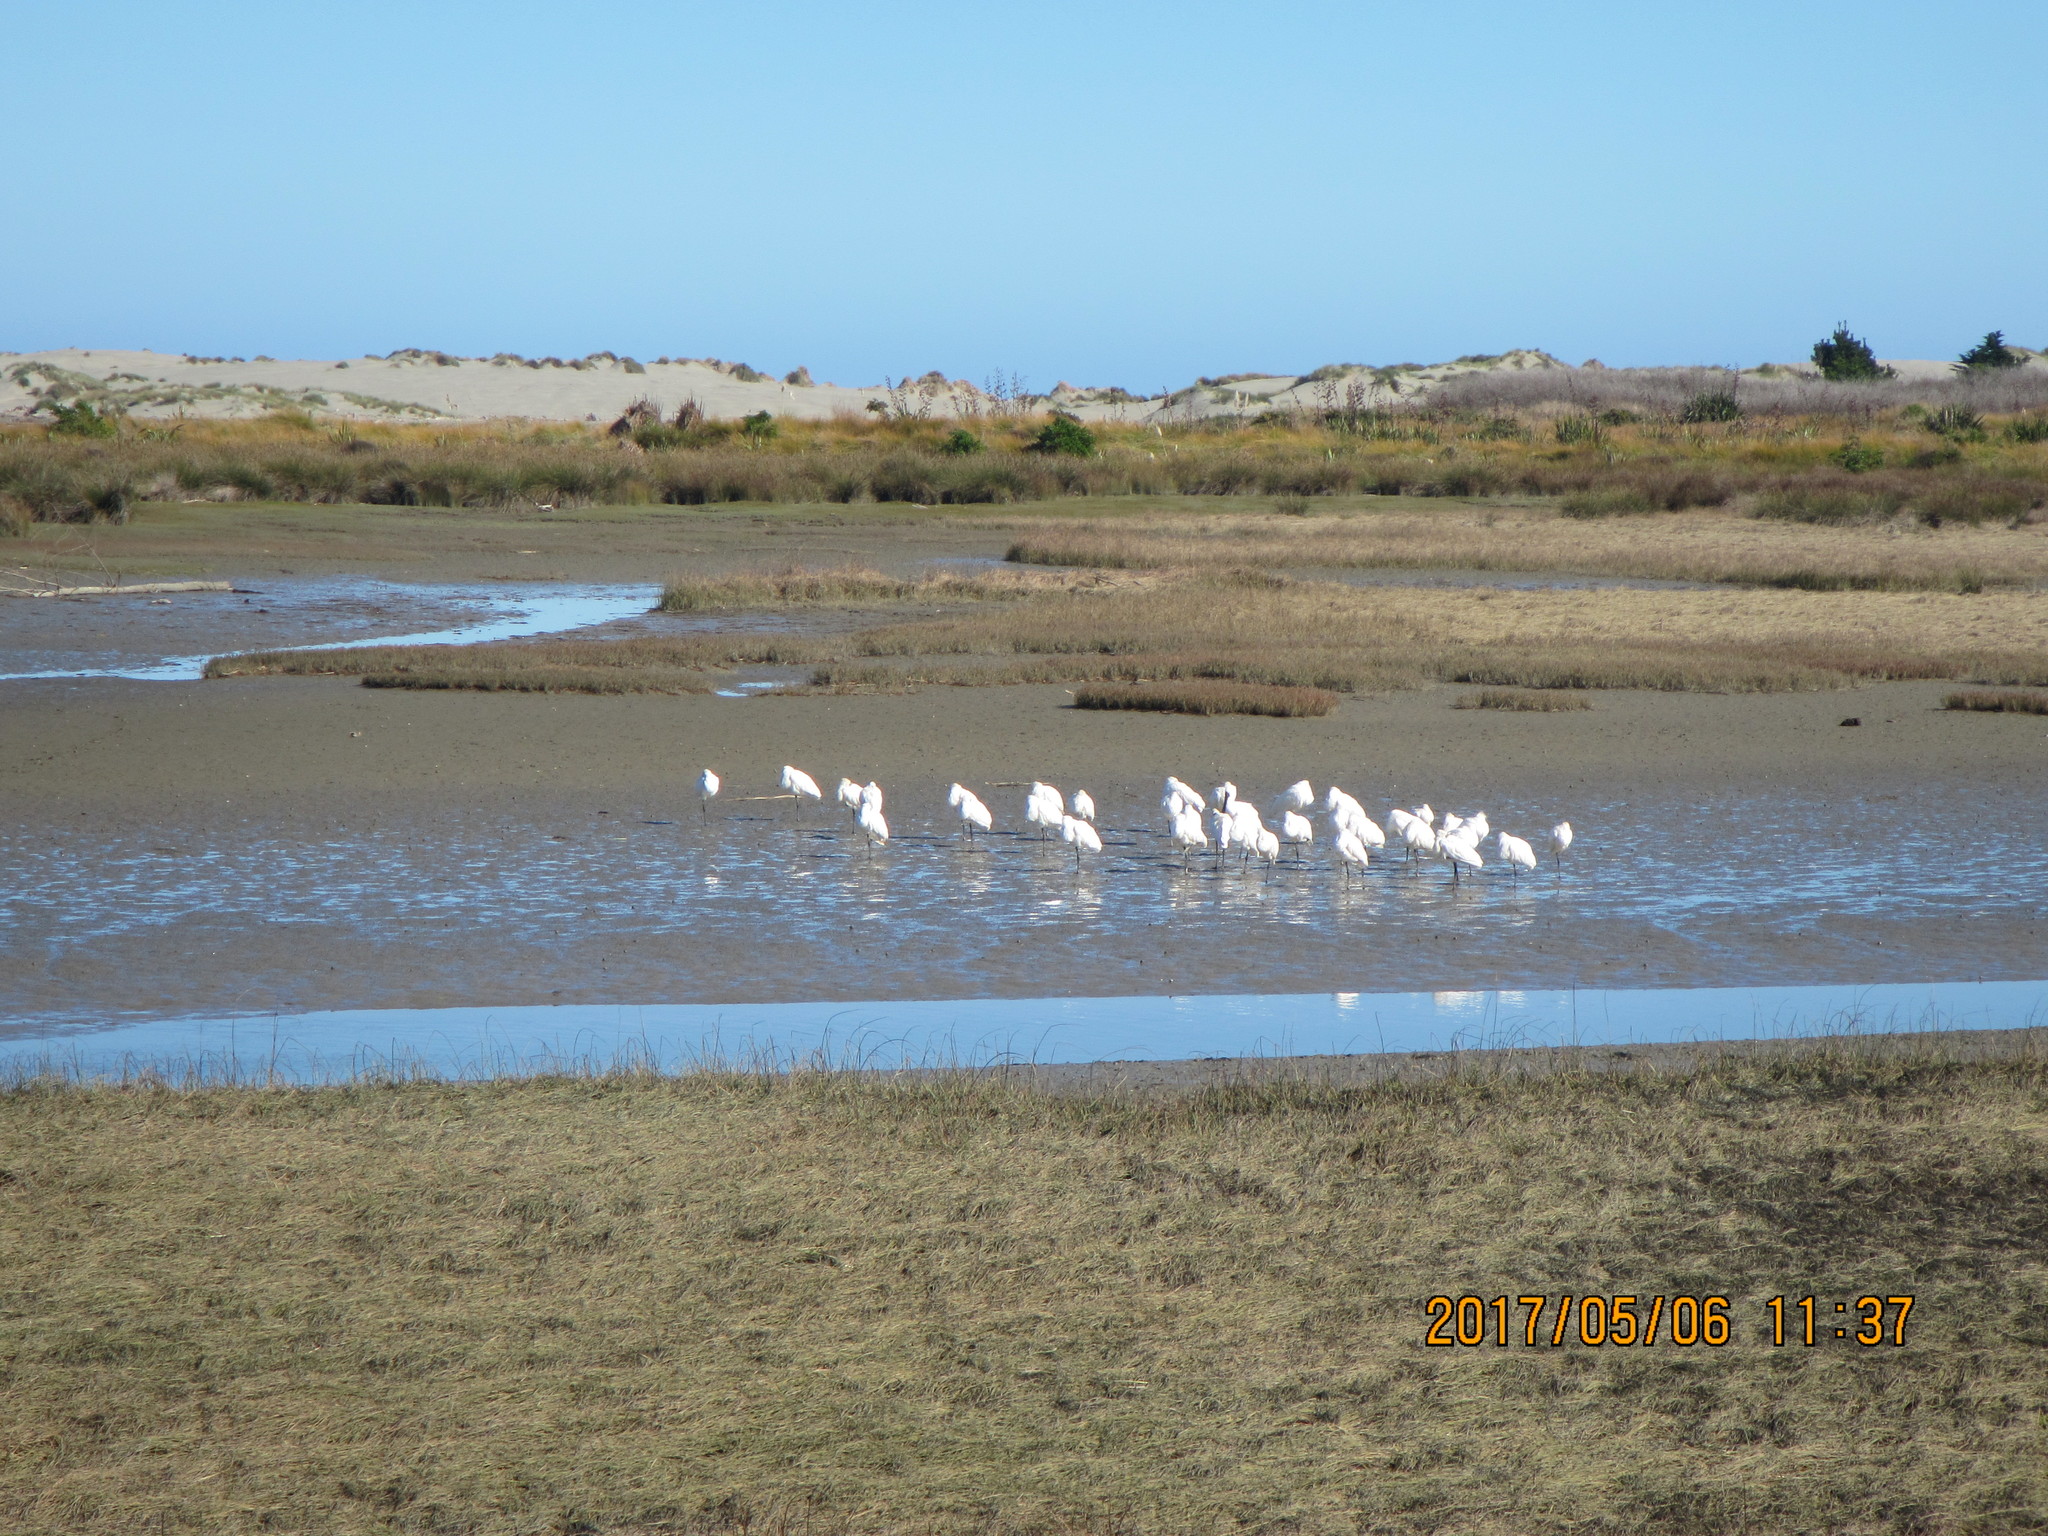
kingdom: Animalia
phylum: Chordata
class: Aves
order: Pelecaniformes
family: Threskiornithidae
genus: Platalea
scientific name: Platalea regia
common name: Royal spoonbill
